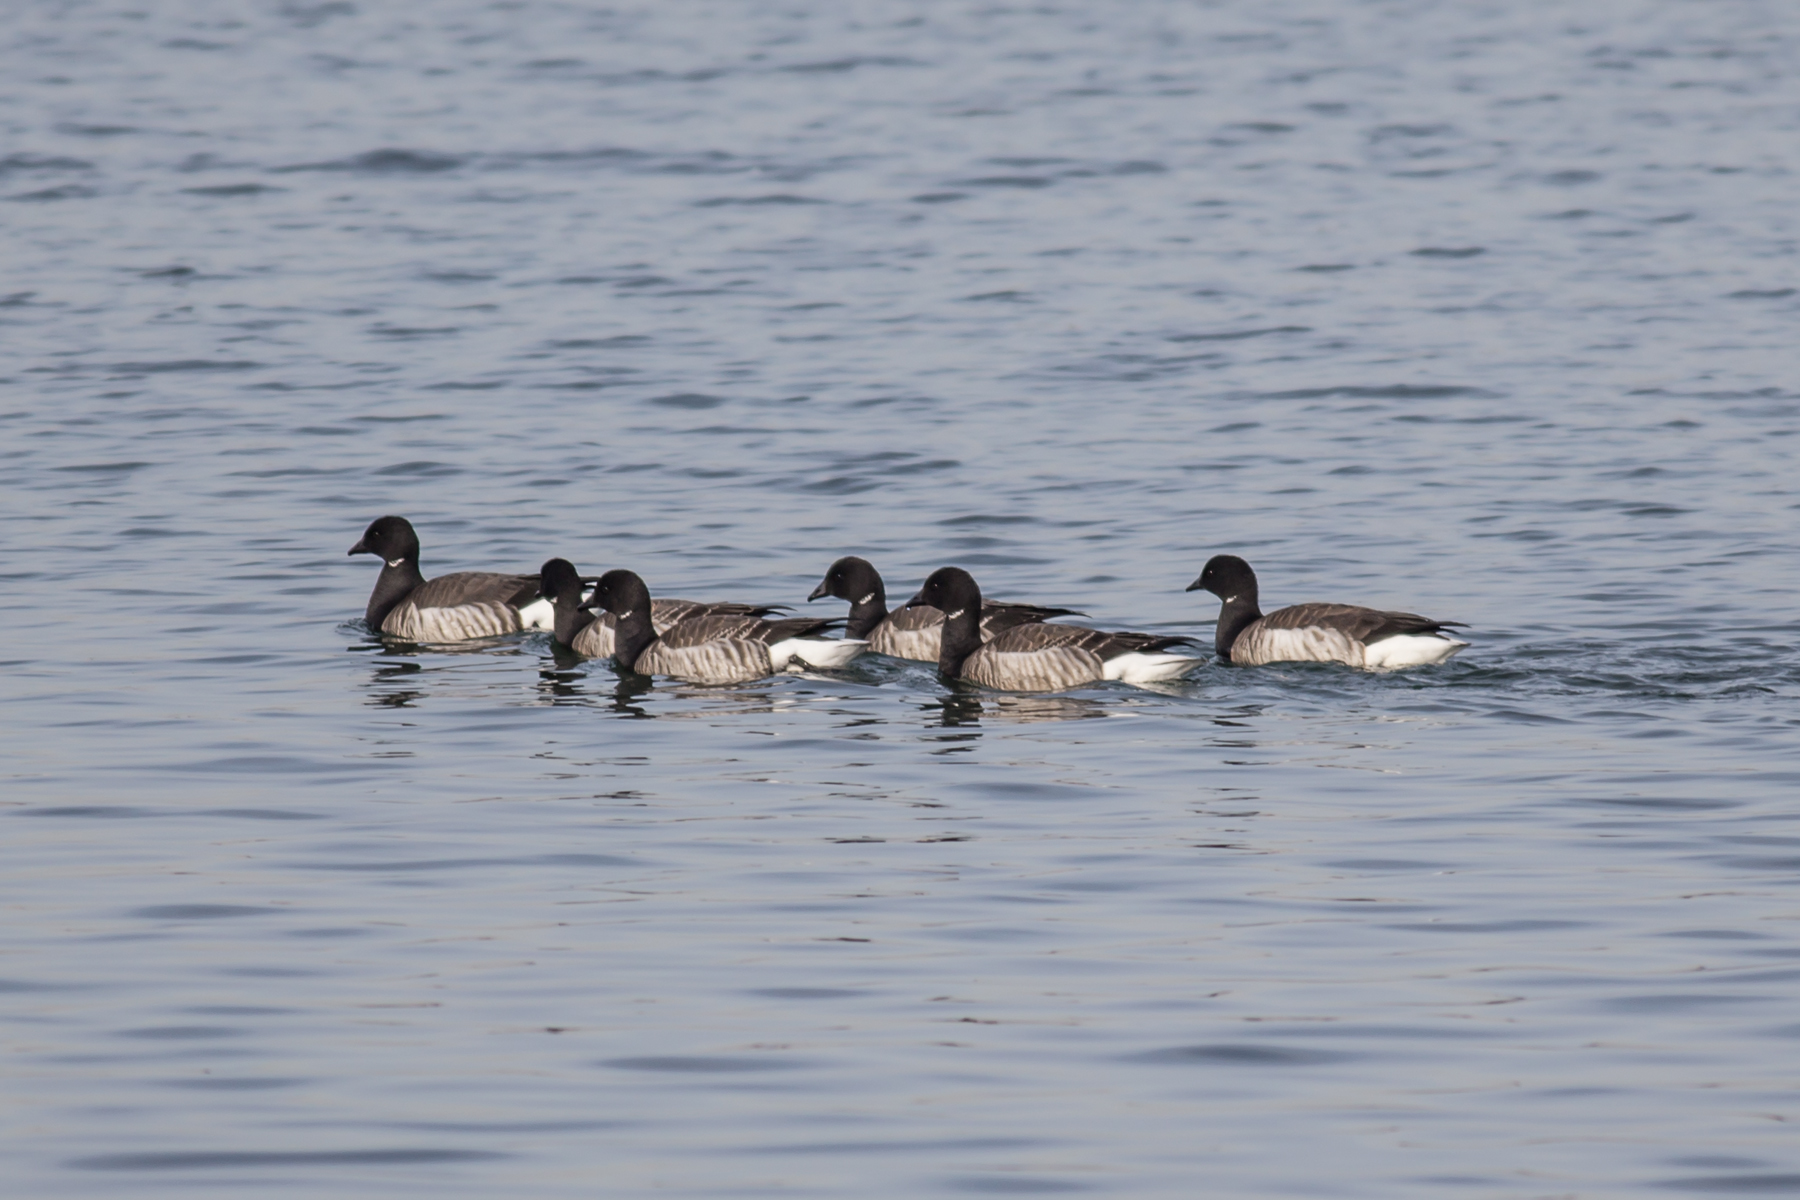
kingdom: Animalia
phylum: Chordata
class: Aves
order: Anseriformes
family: Anatidae
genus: Branta
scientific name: Branta bernicla
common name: Brant goose
